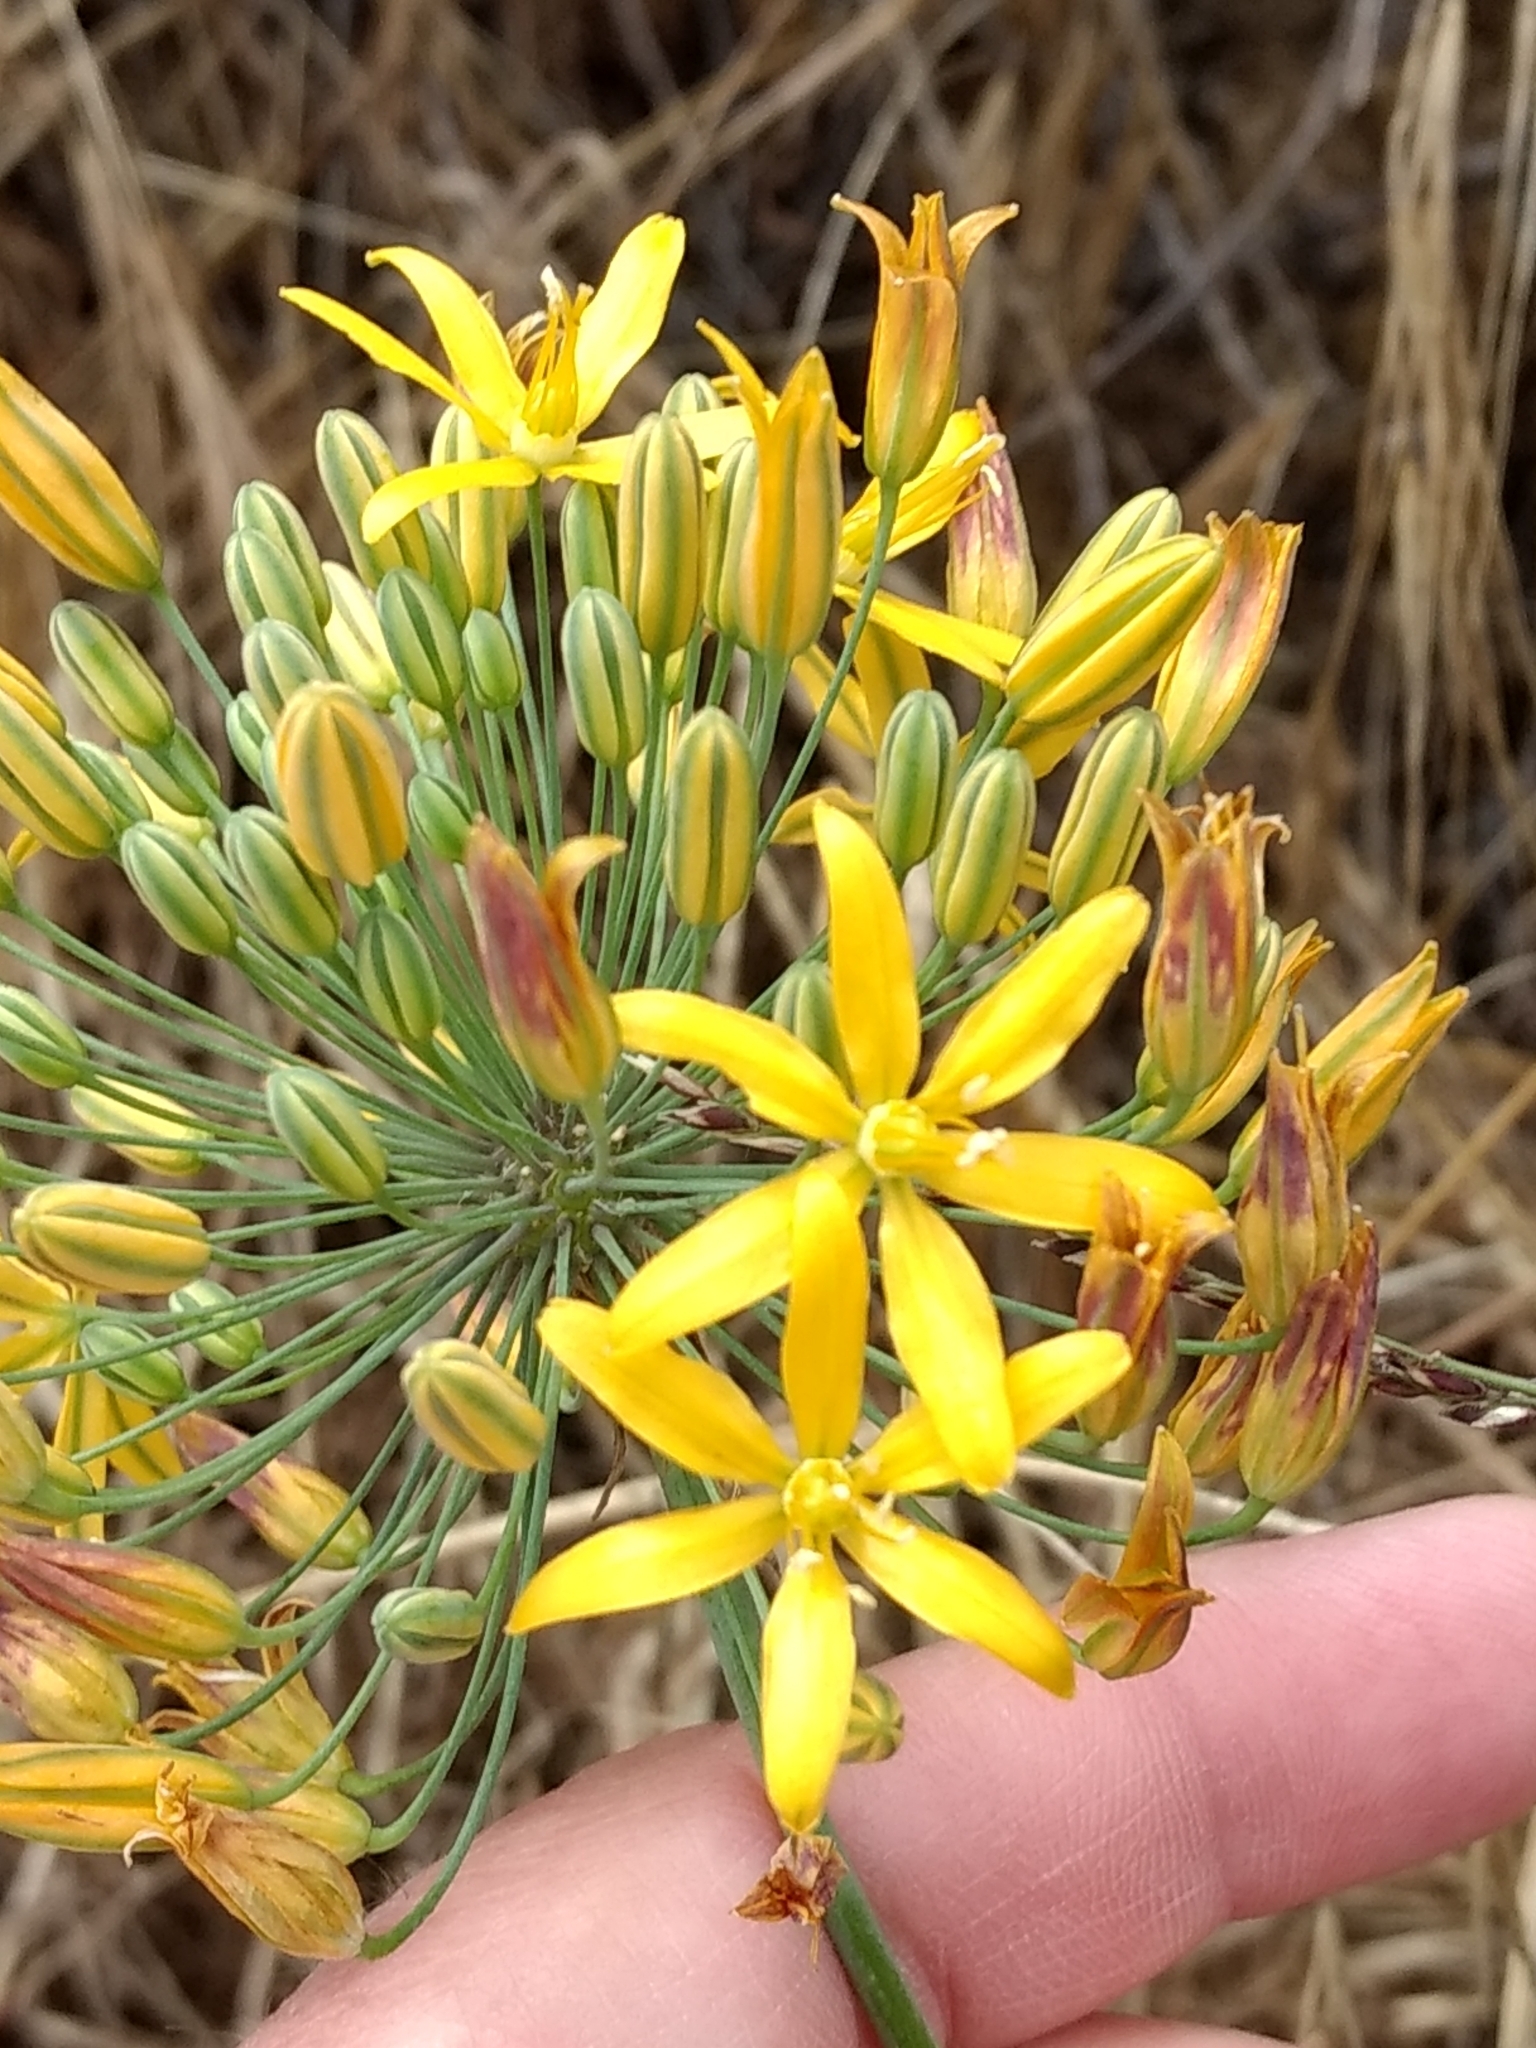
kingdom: Plantae
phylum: Tracheophyta
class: Liliopsida
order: Asparagales
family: Asparagaceae
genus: Bloomeria
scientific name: Bloomeria crocea
